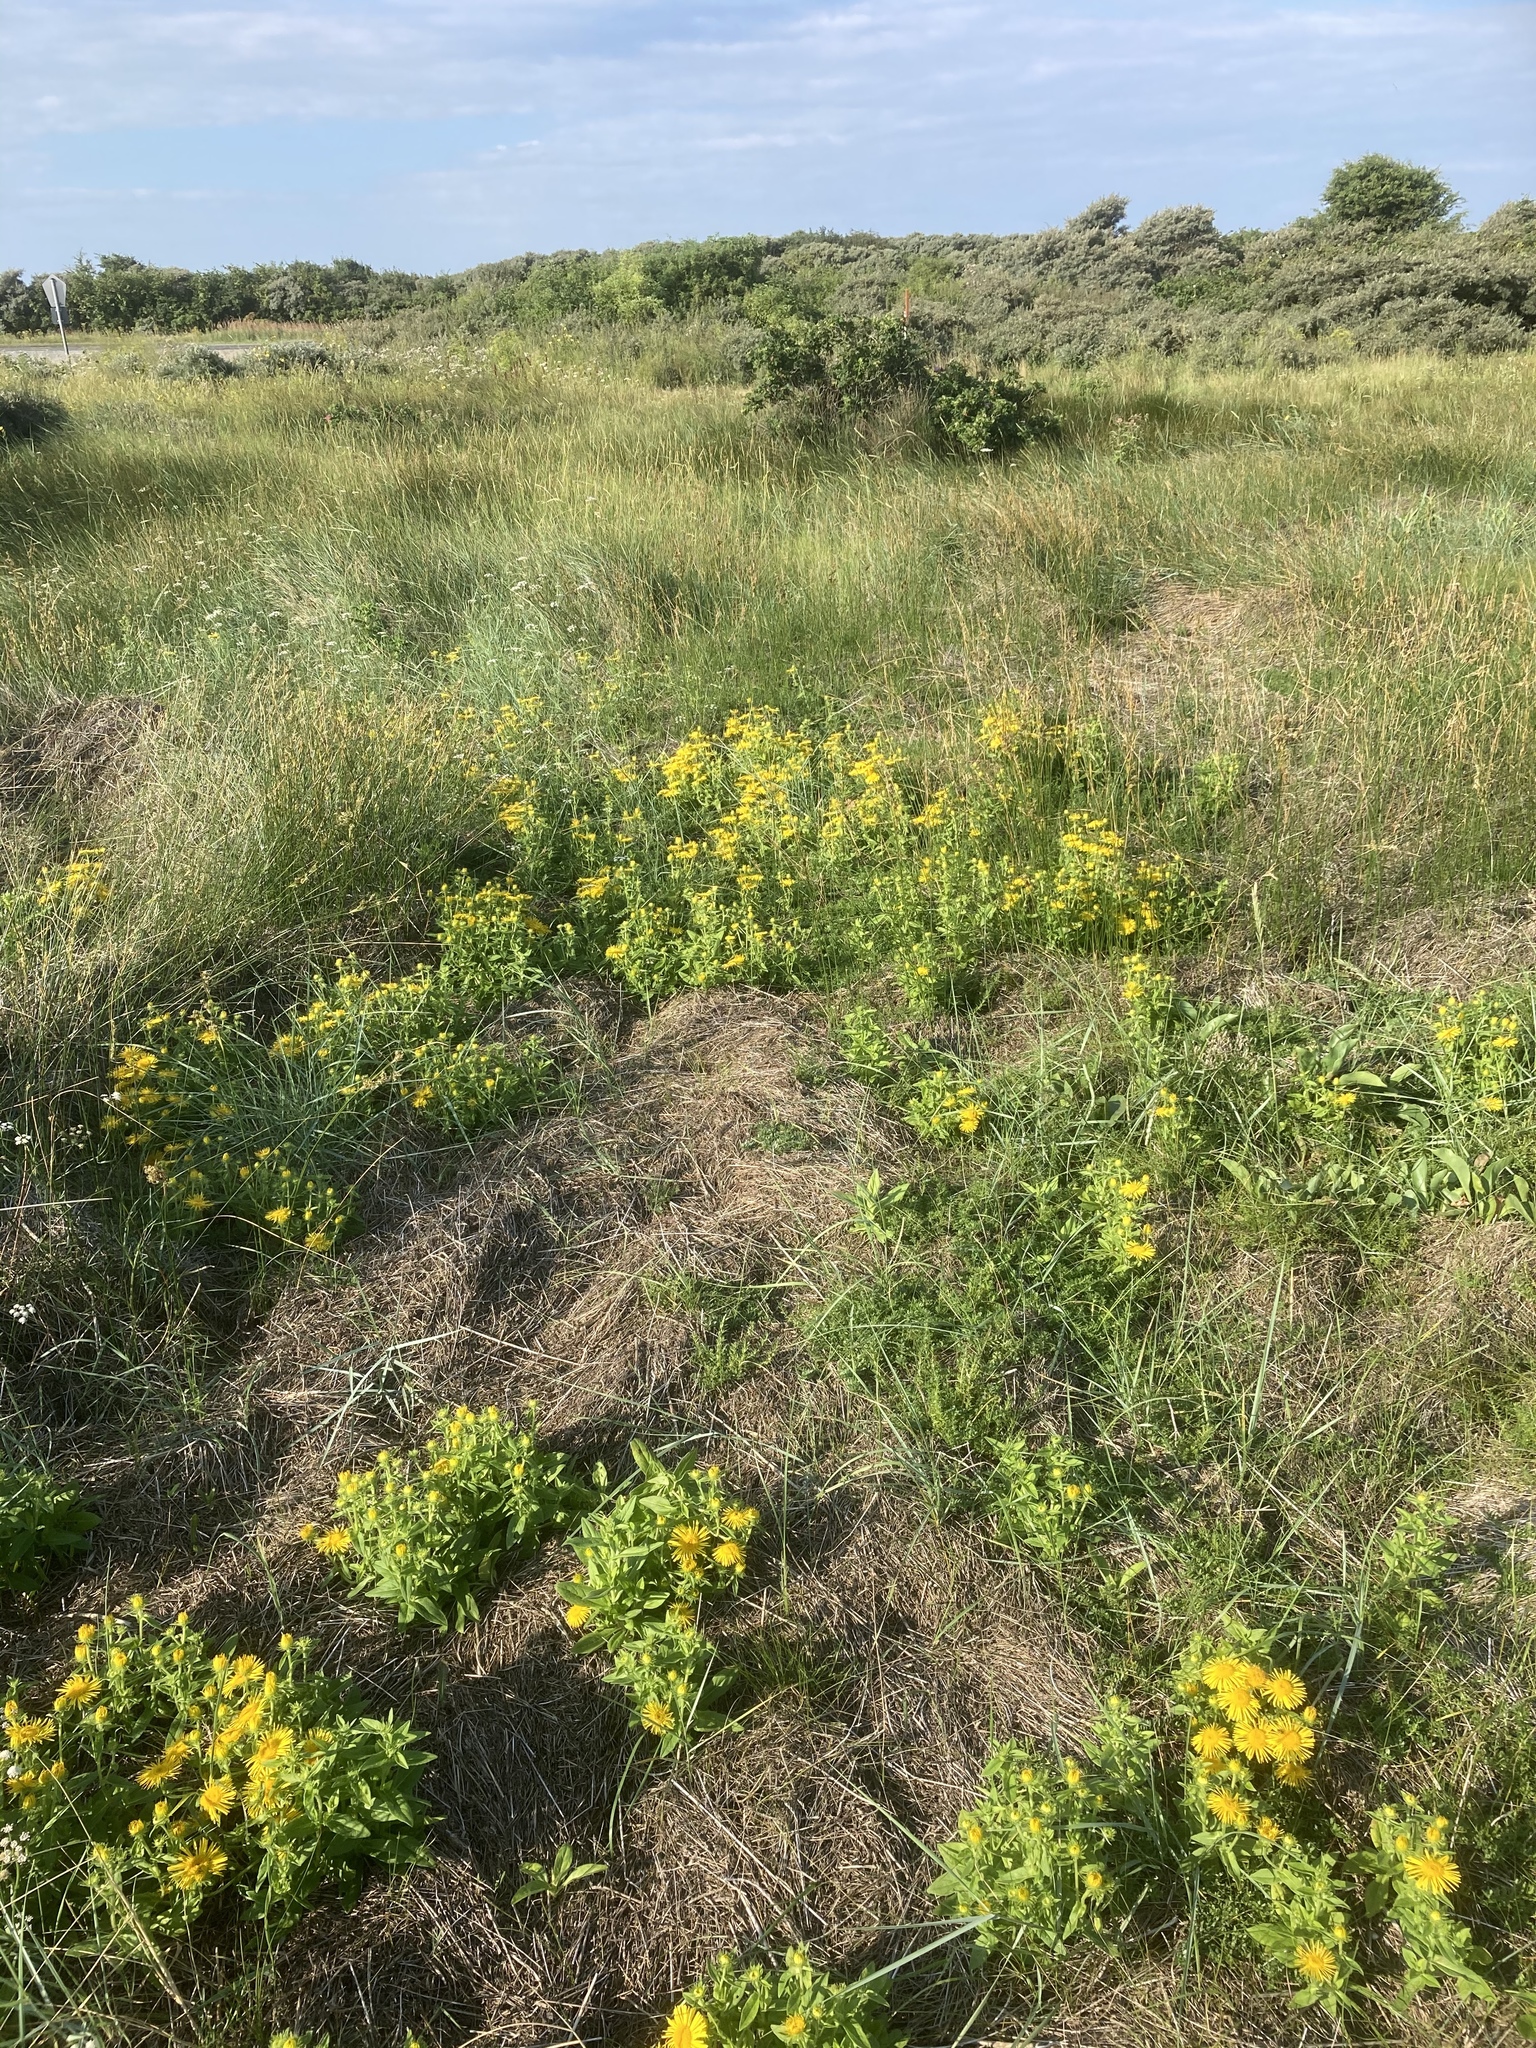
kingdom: Plantae
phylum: Tracheophyta
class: Magnoliopsida
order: Asterales
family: Asteraceae
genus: Pentanema
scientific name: Pentanema britannicum
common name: British elecampane
